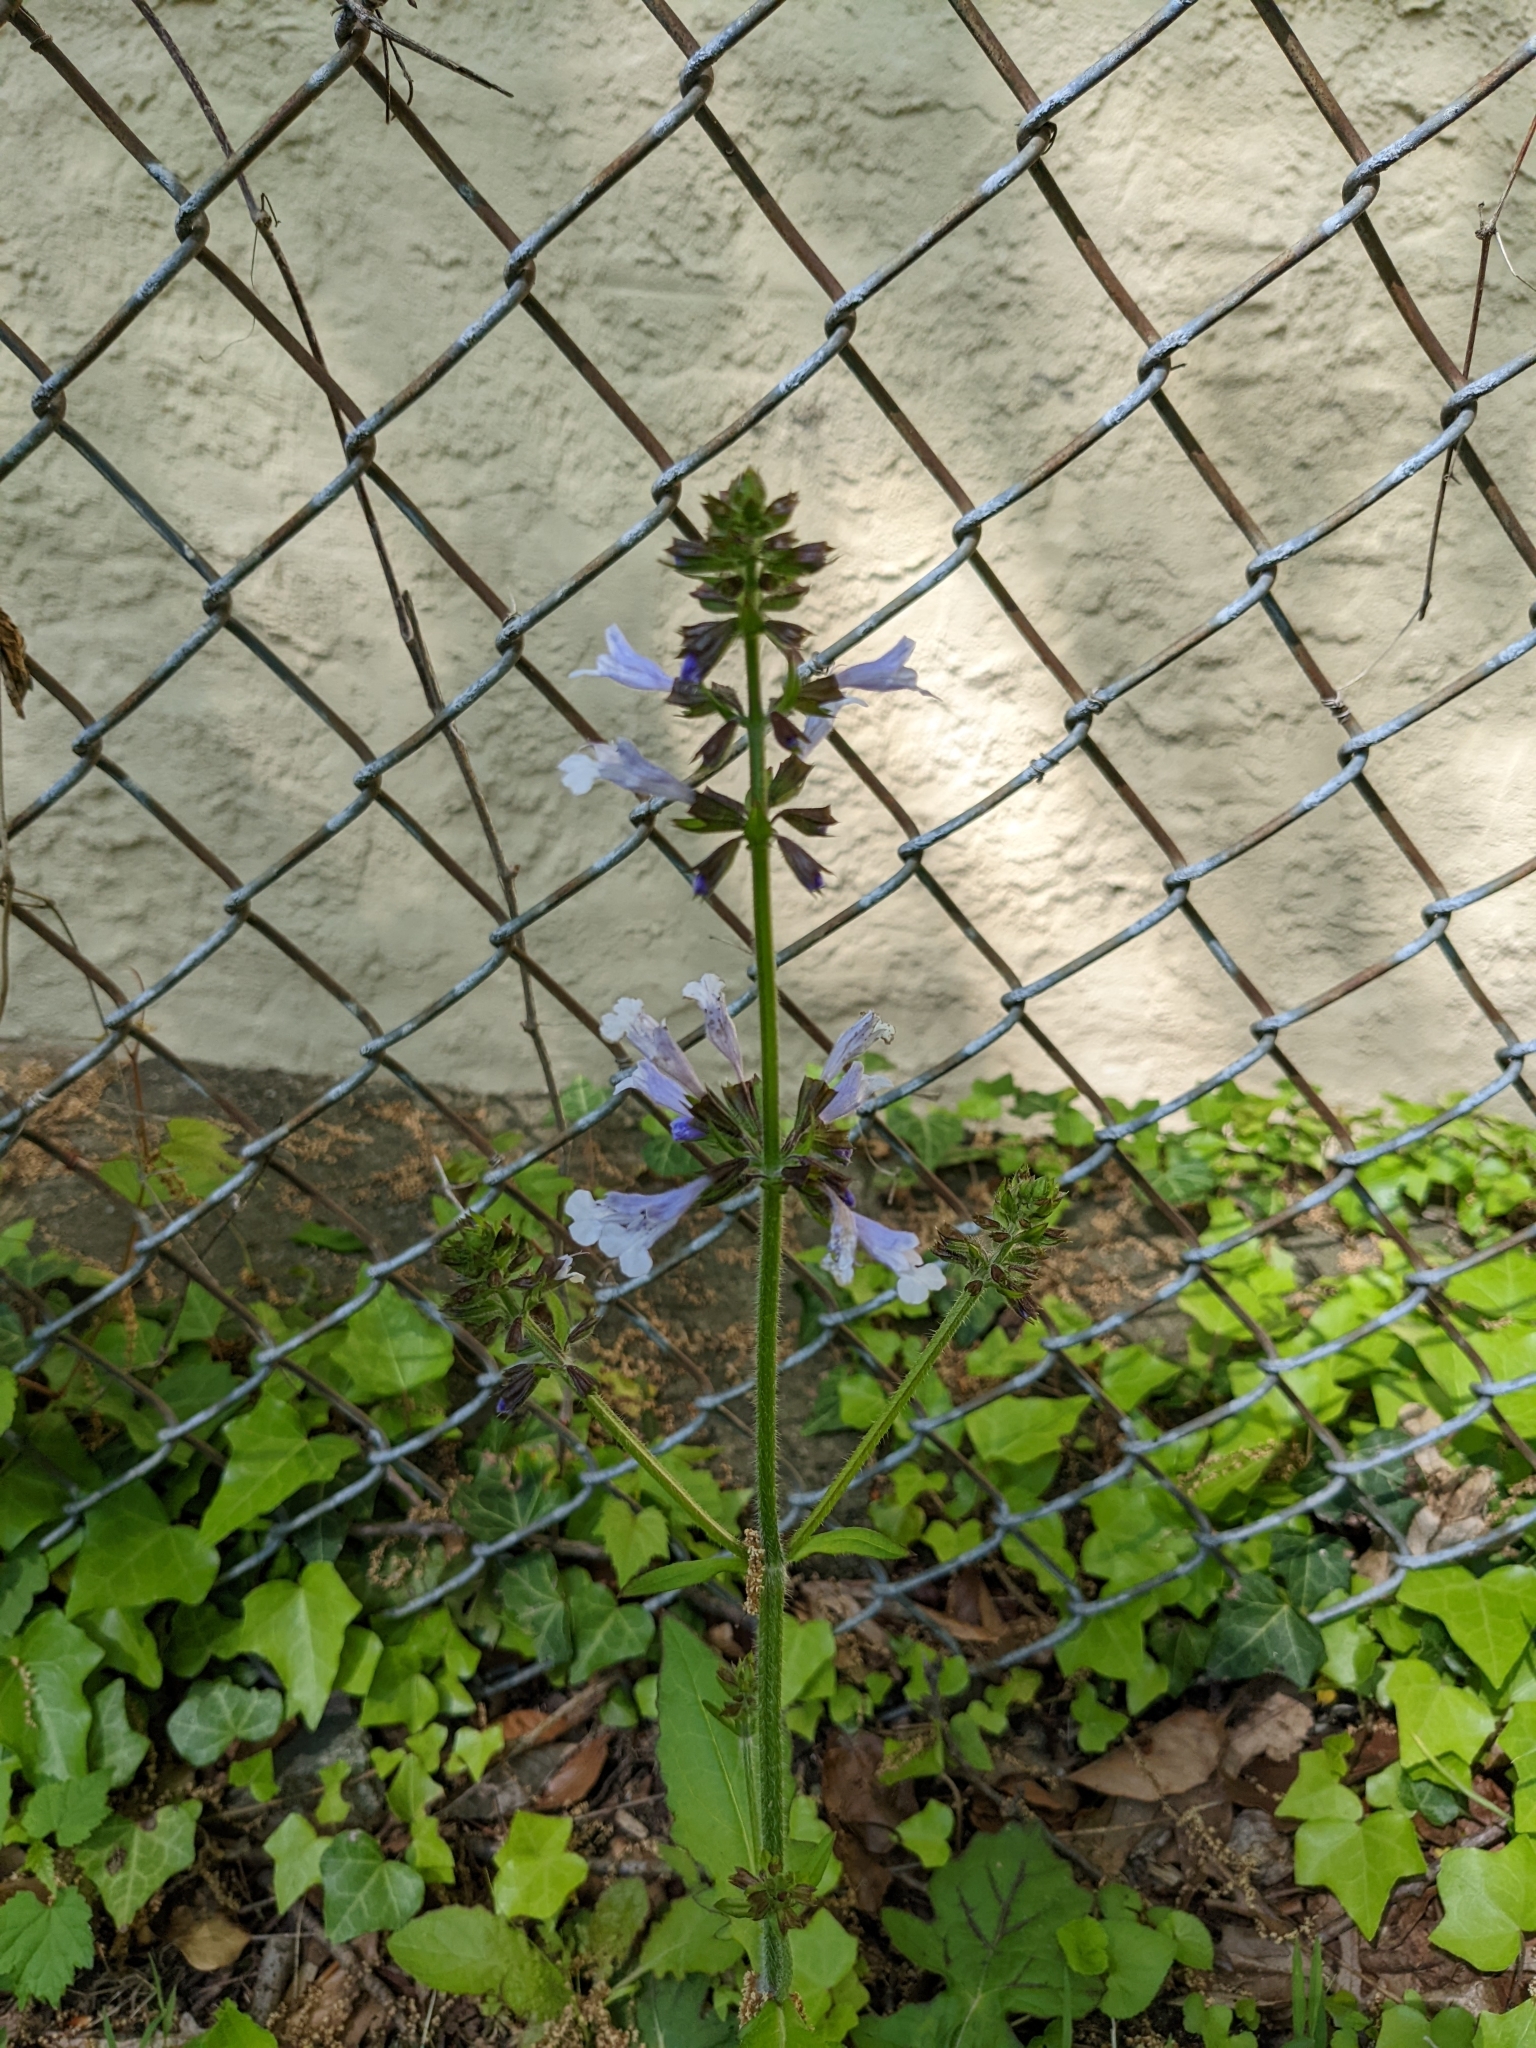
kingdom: Plantae
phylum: Tracheophyta
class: Magnoliopsida
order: Lamiales
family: Lamiaceae
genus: Salvia
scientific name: Salvia lyrata
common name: Cancerweed
